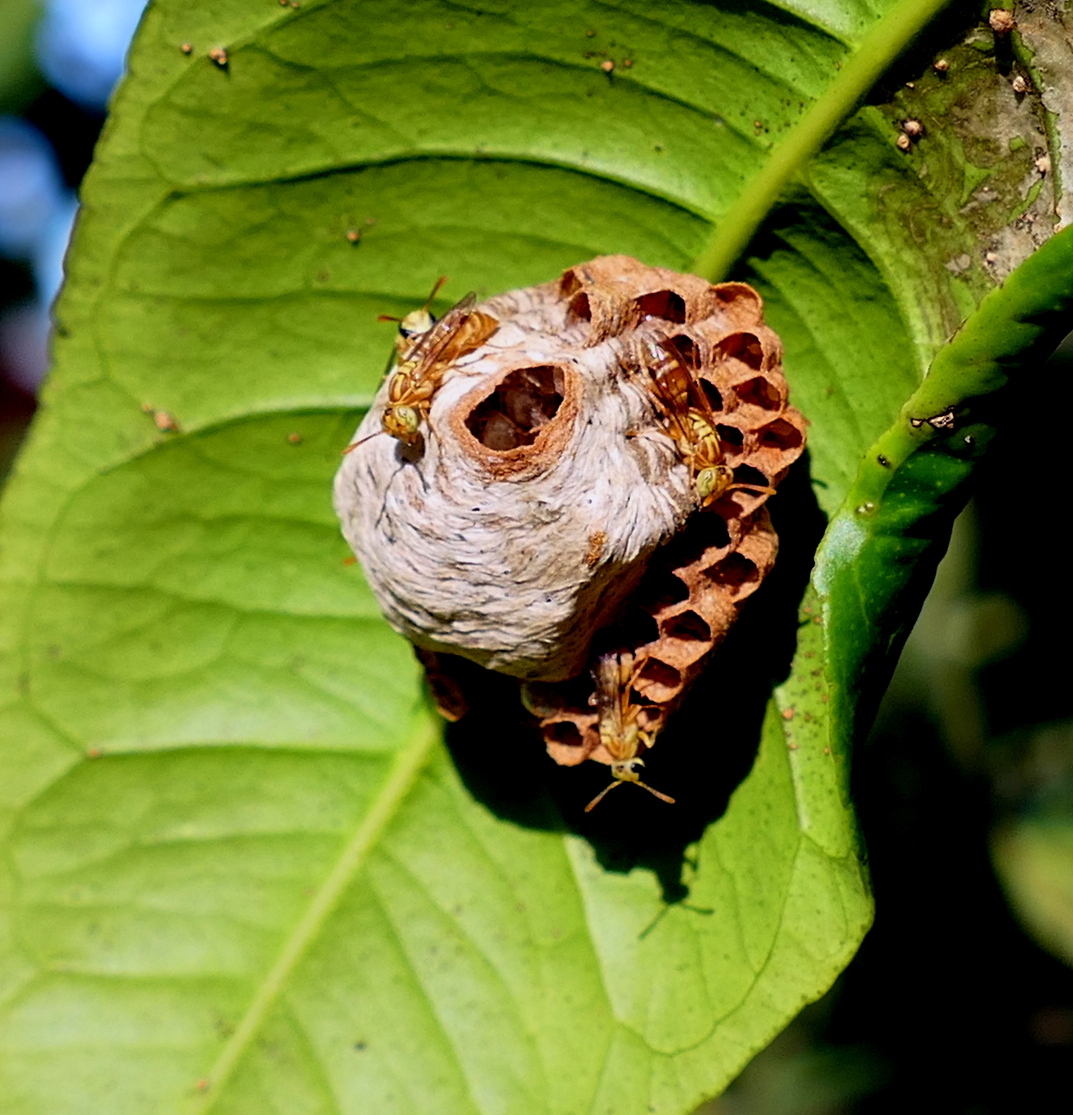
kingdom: Animalia
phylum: Arthropoda
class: Insecta
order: Hymenoptera
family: Vespidae
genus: Protopolybia
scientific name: Protopolybia potiguara
